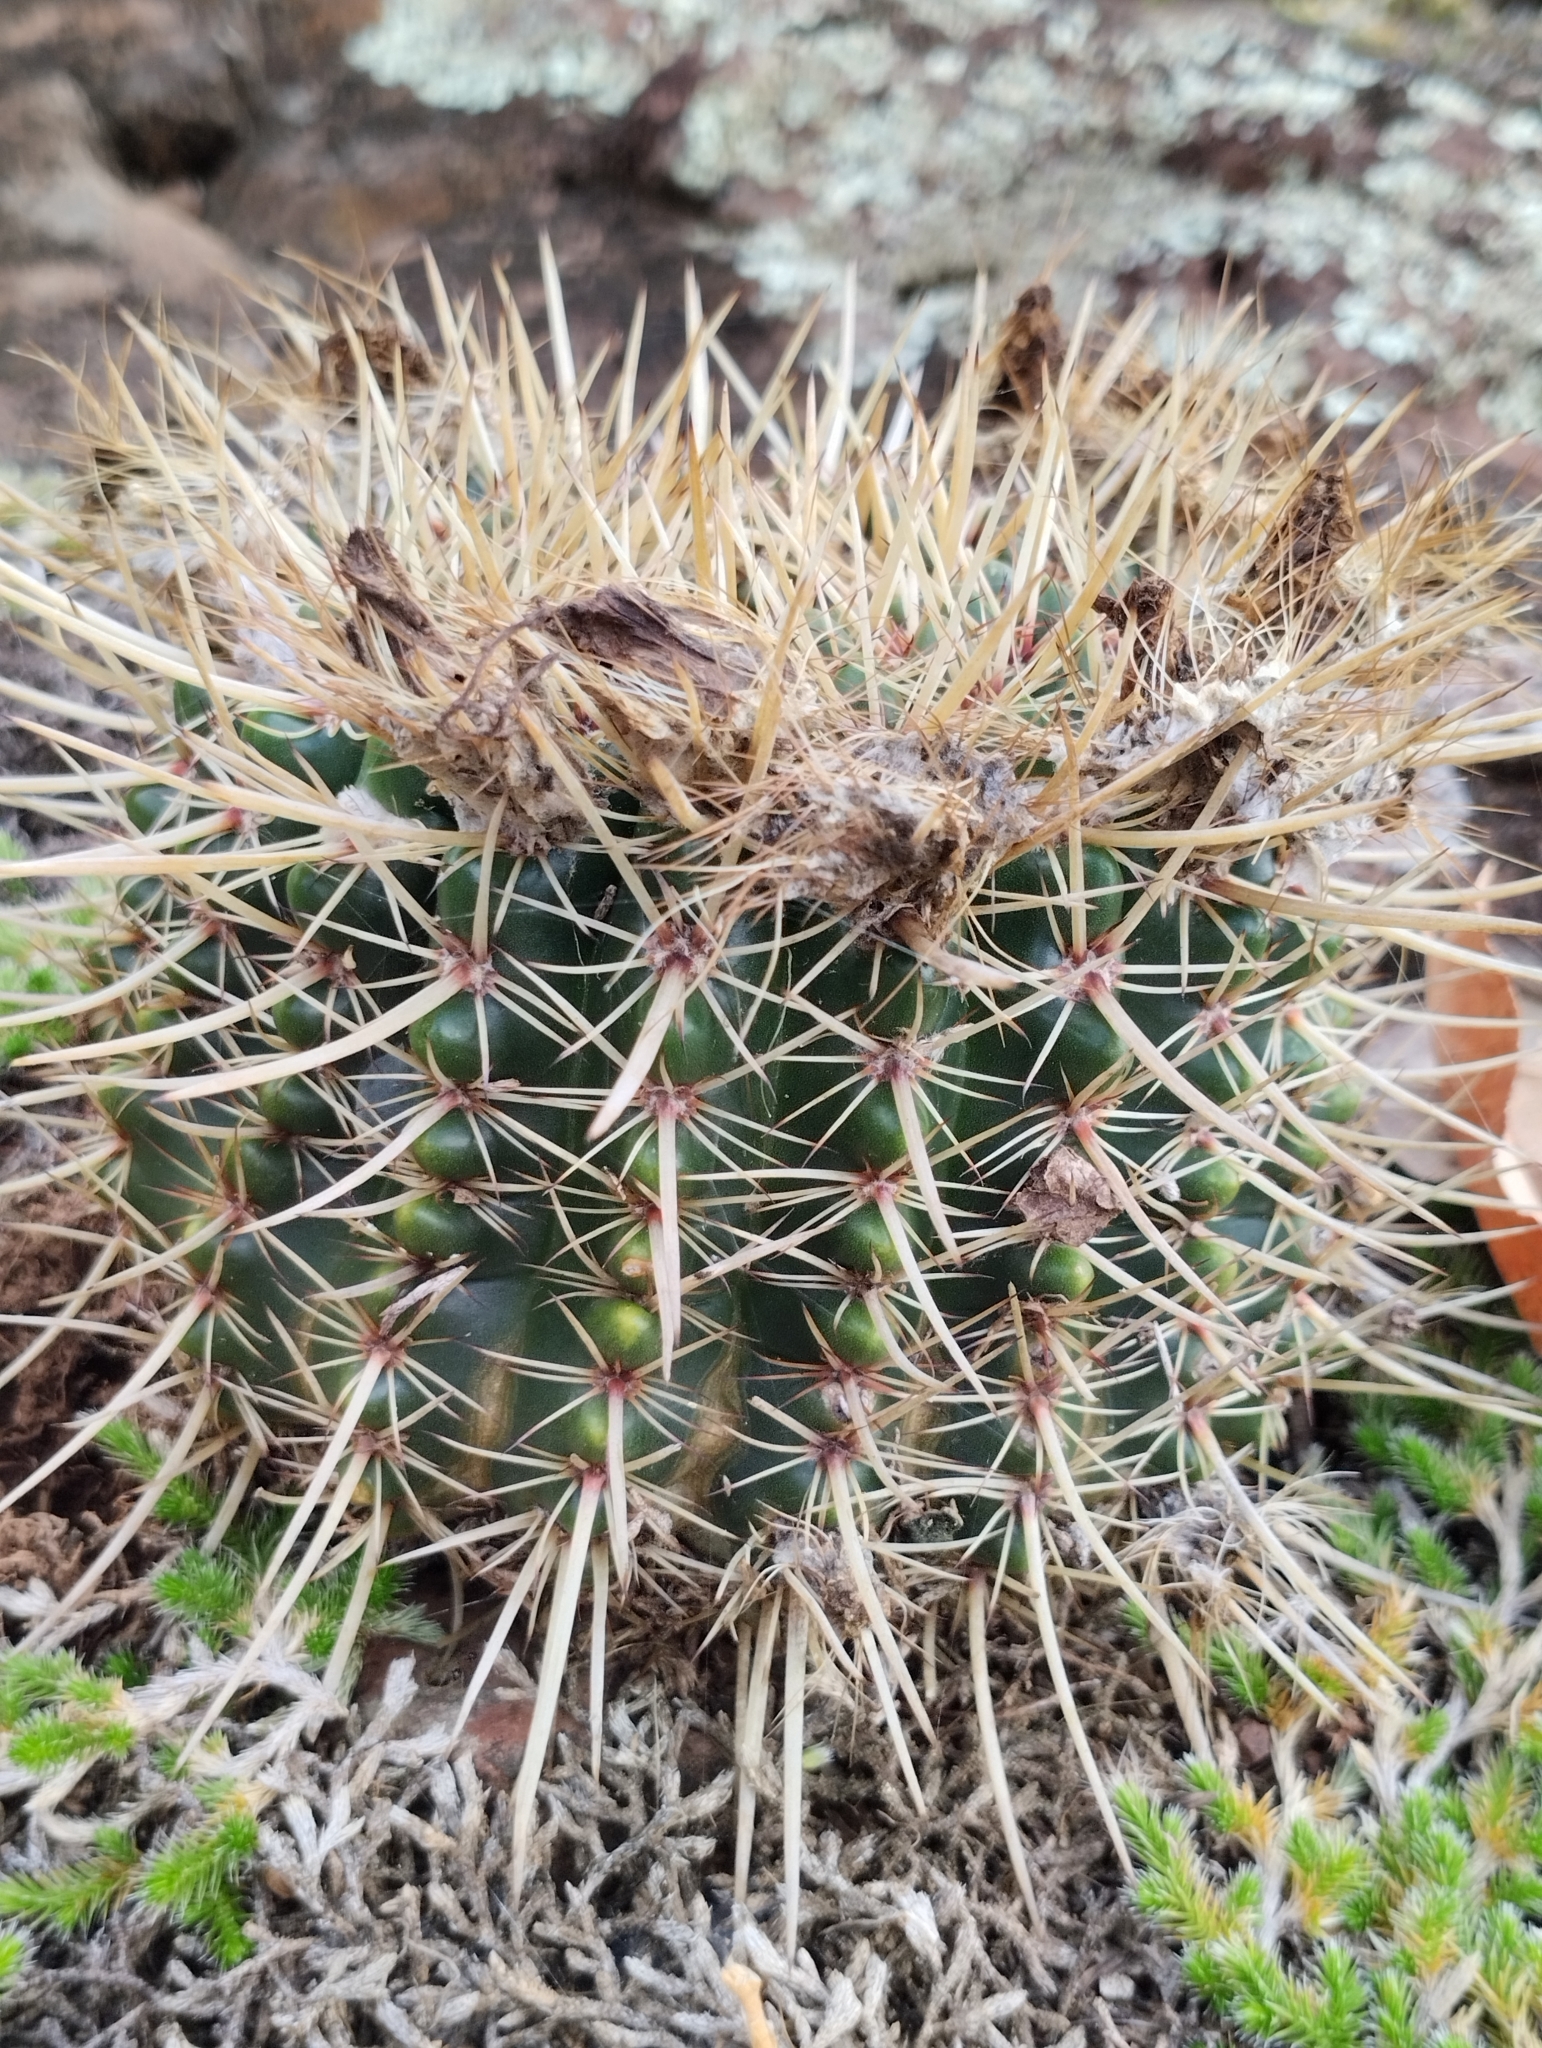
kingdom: Plantae
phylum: Tracheophyta
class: Magnoliopsida
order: Caryophyllales
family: Cactaceae
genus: Parodia
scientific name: Parodia mammulosa
